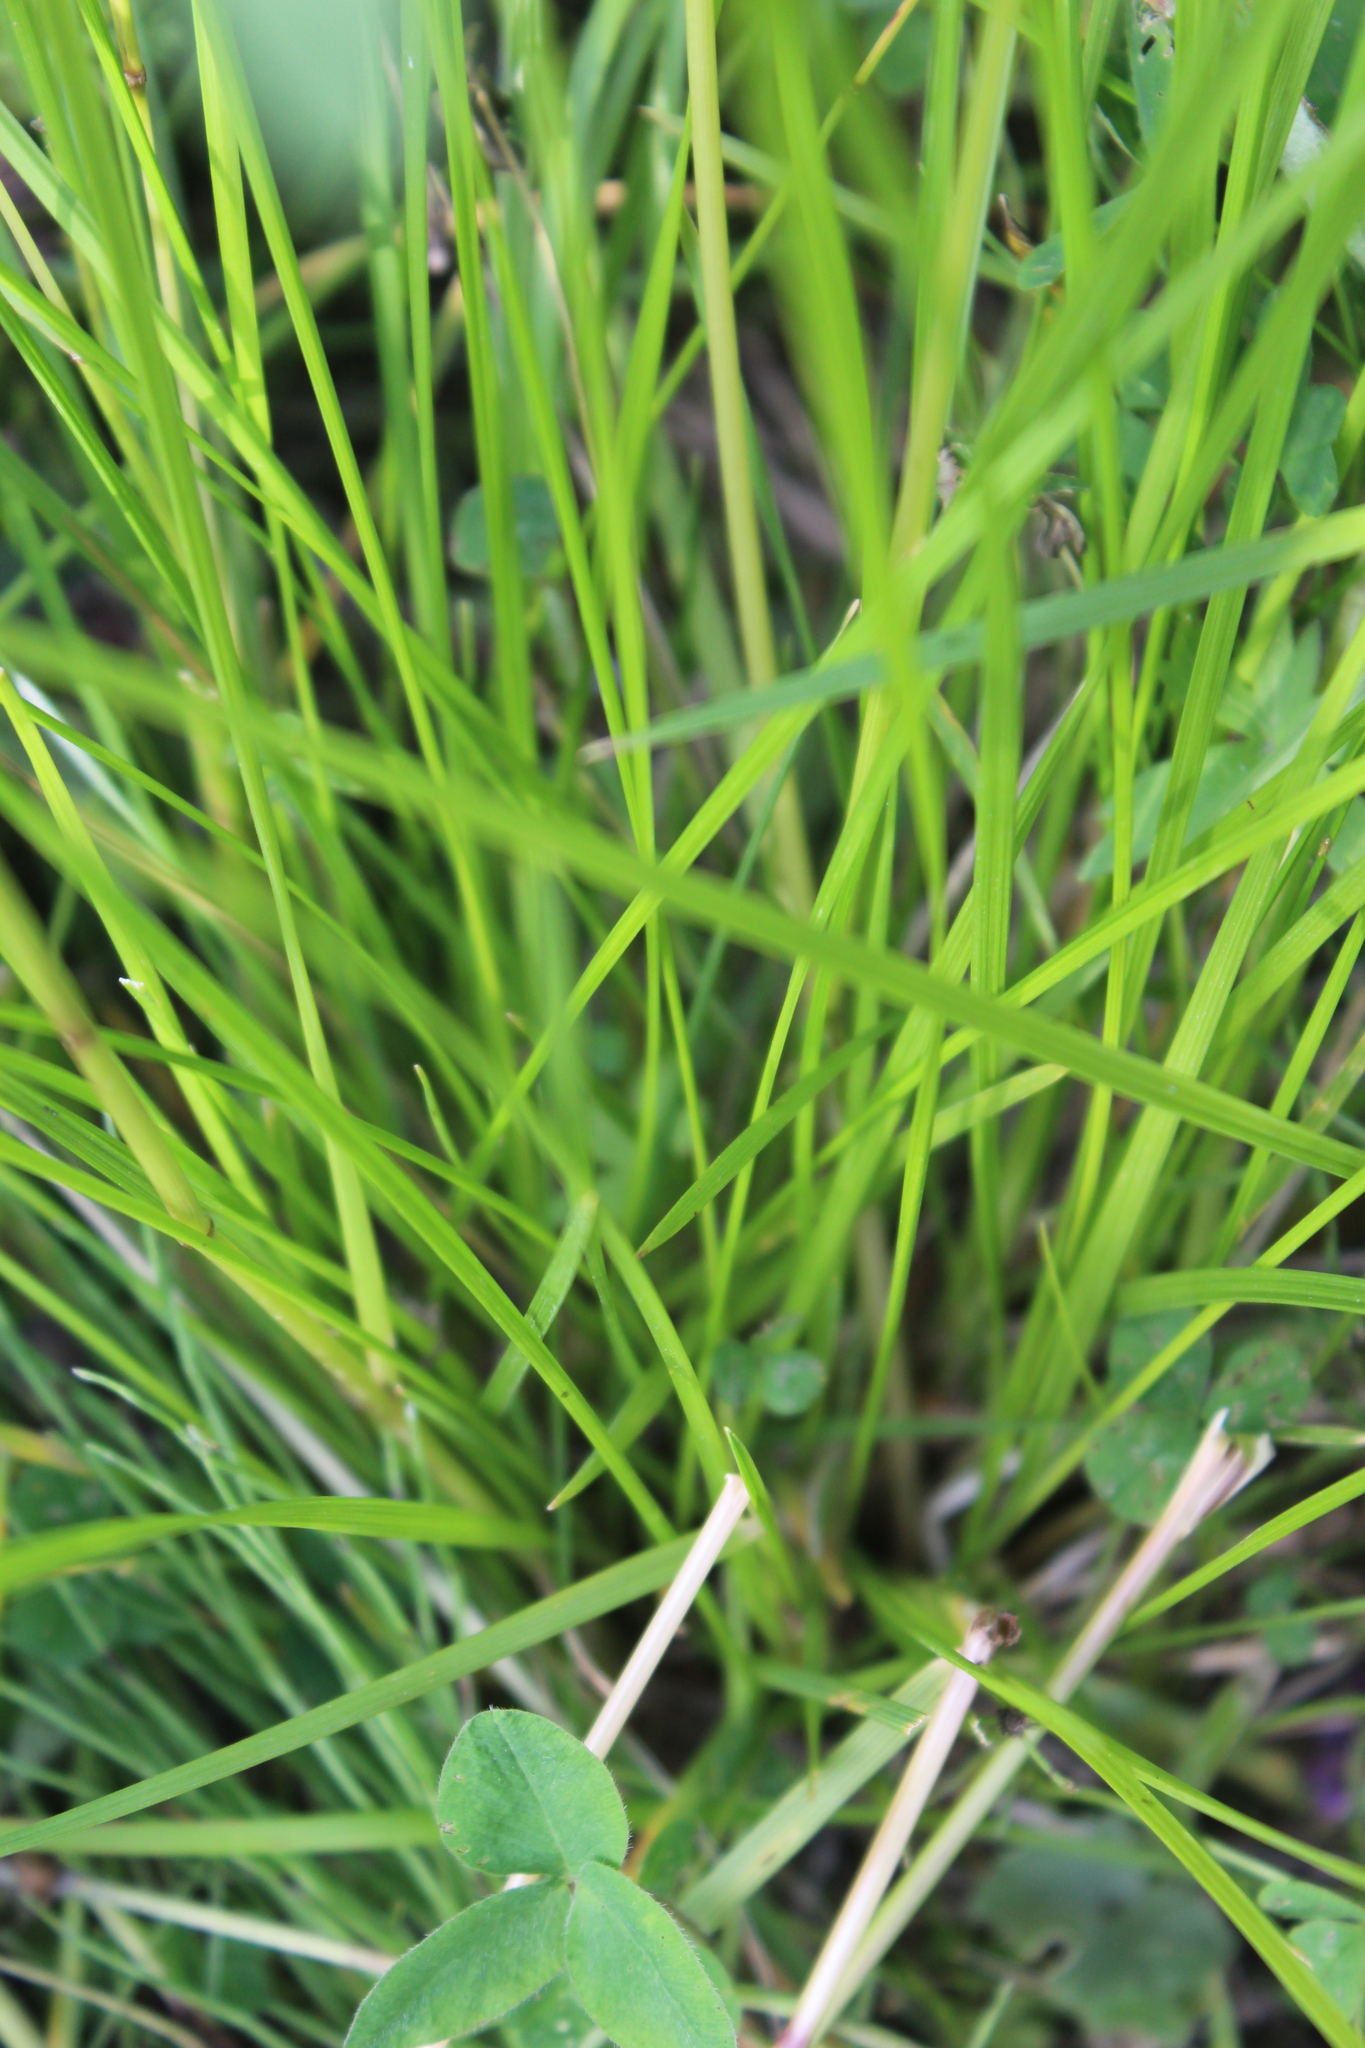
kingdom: Plantae
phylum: Tracheophyta
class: Liliopsida
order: Poales
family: Poaceae
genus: Deschampsia
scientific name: Deschampsia cespitosa
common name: Tufted hair-grass
